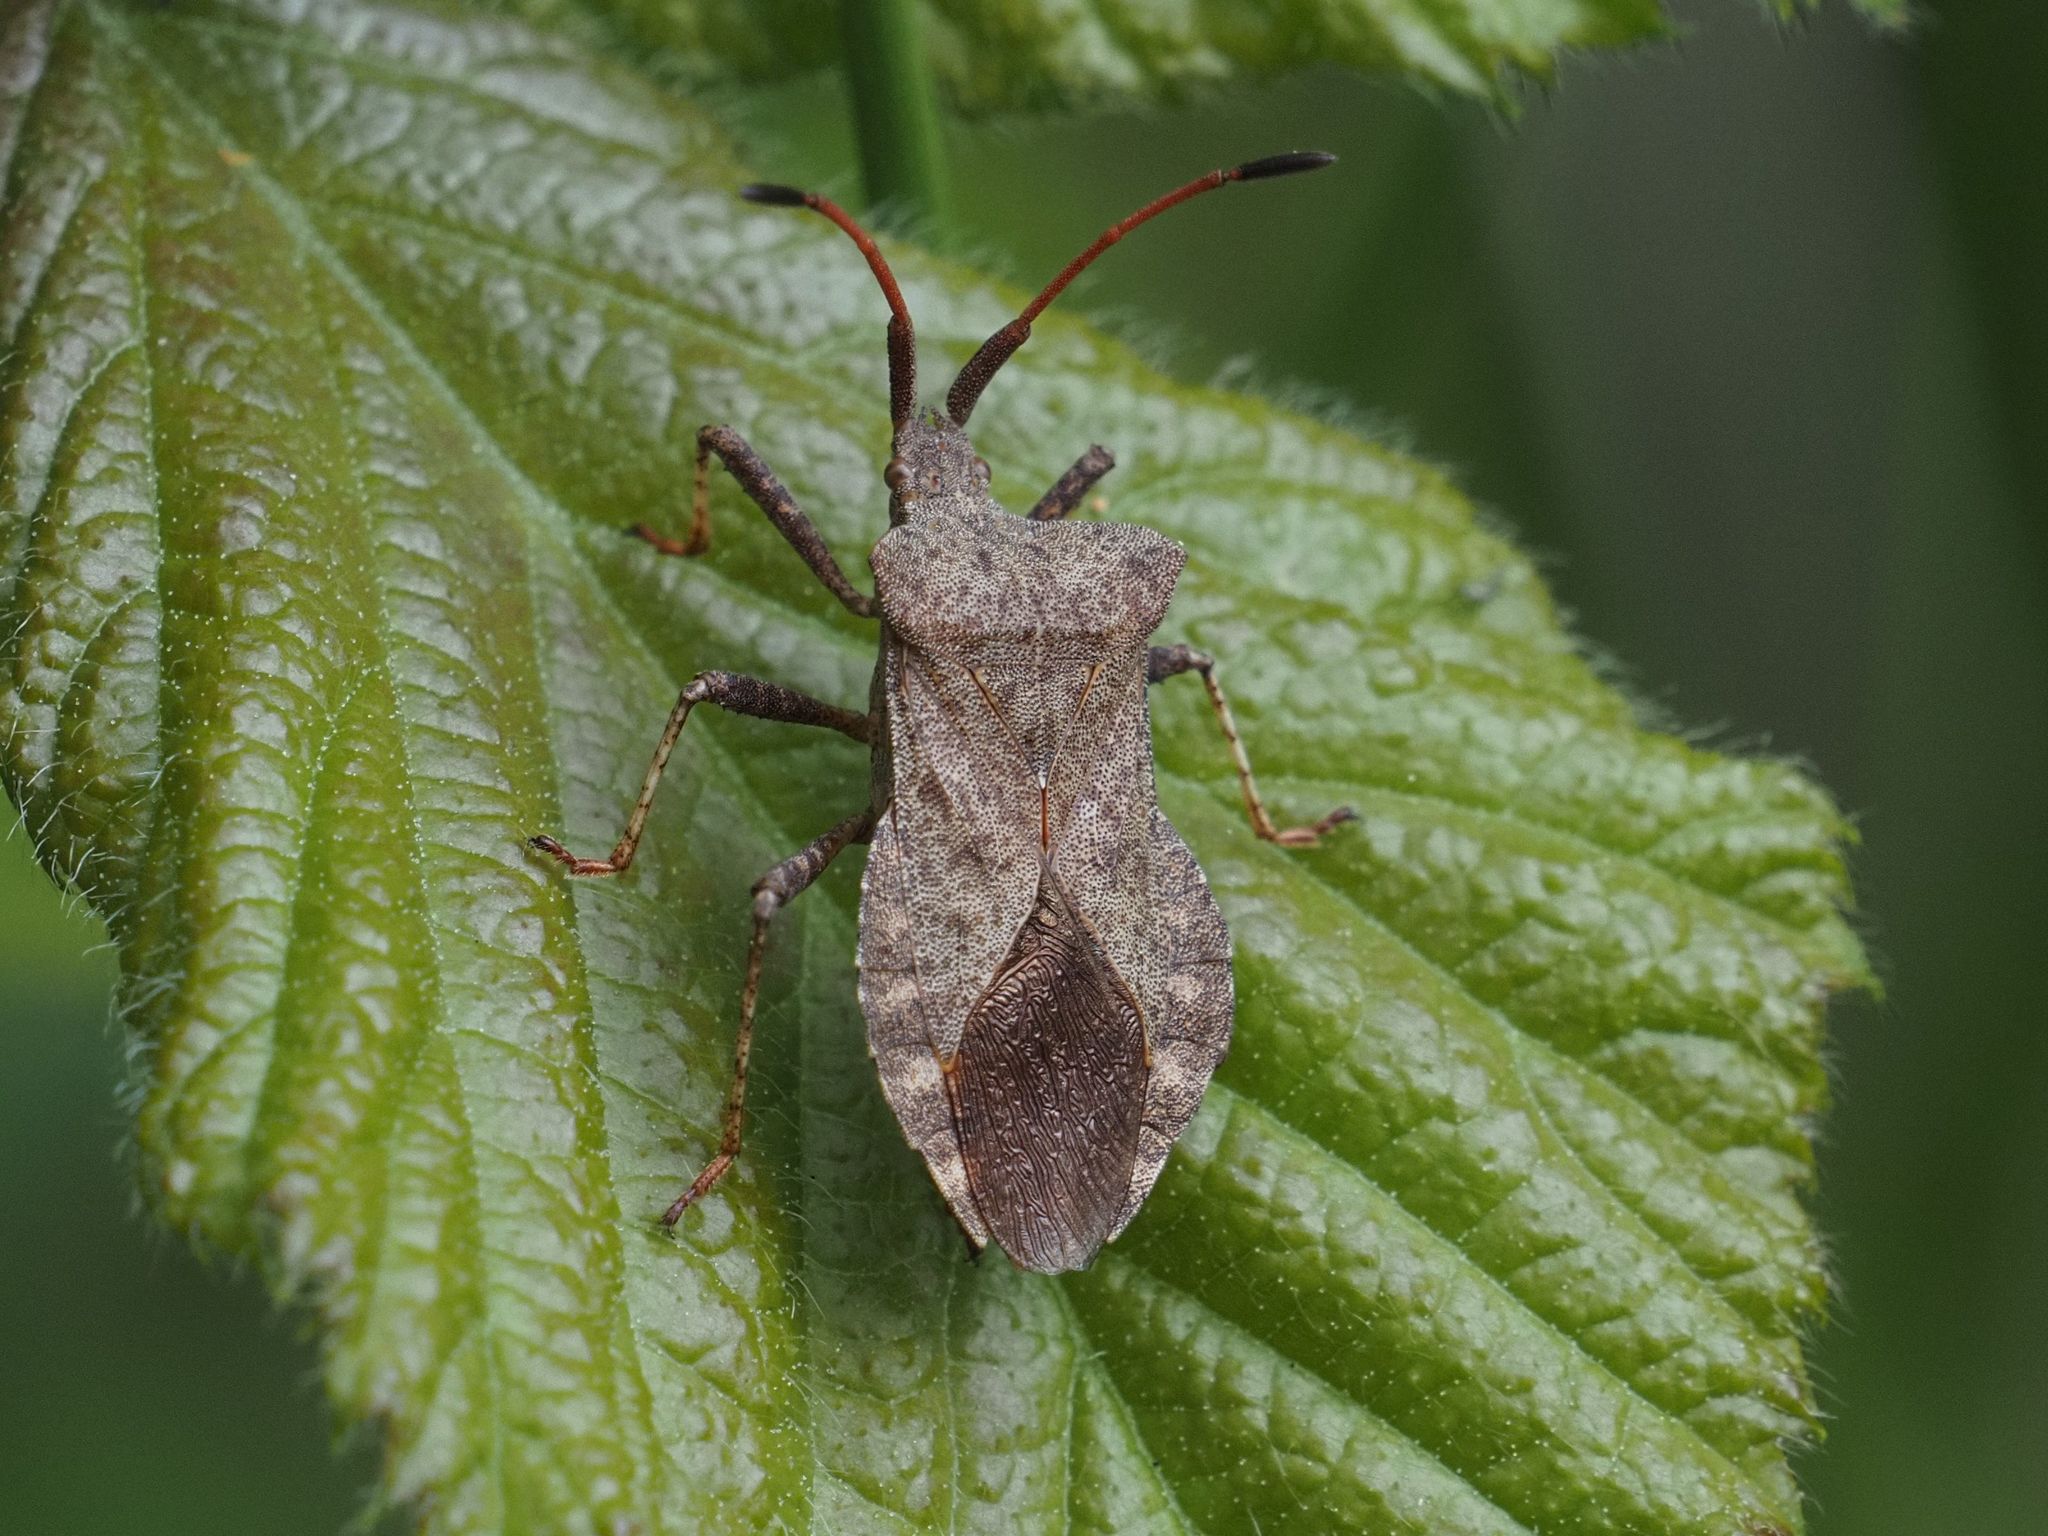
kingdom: Animalia
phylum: Arthropoda
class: Insecta
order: Hemiptera
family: Coreidae
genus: Coreus
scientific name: Coreus marginatus
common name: Dock bug
